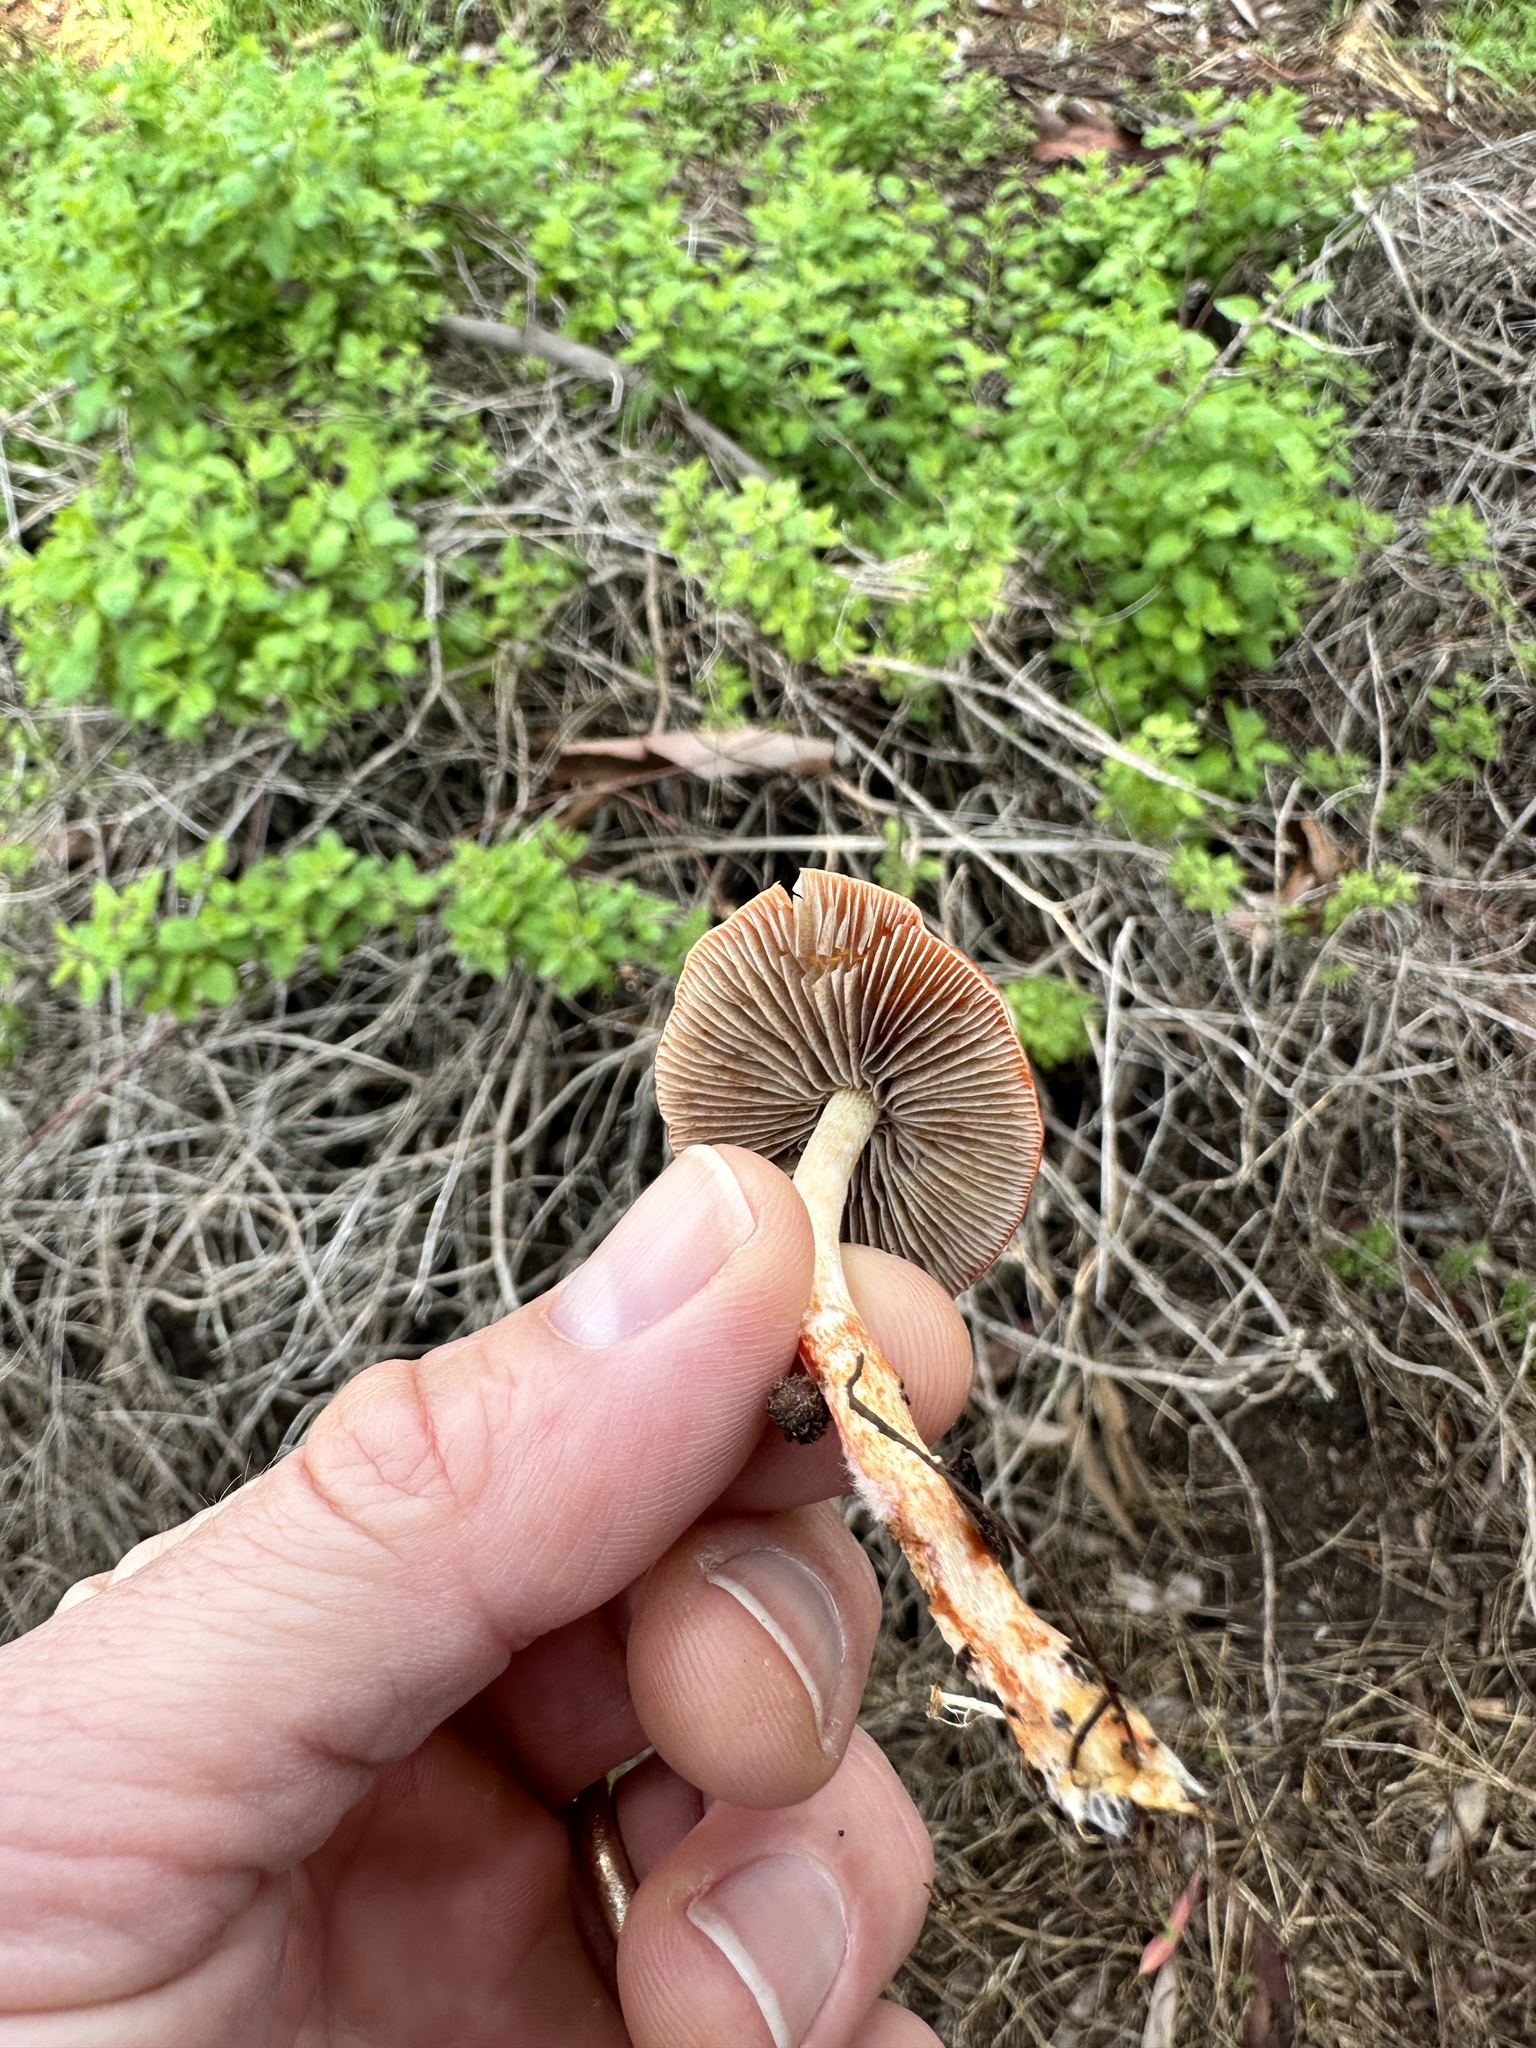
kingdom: Fungi
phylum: Basidiomycota
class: Agaricomycetes
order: Agaricales
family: Strophariaceae
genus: Leratiomyces
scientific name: Leratiomyces ceres
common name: Redlead roundhead
